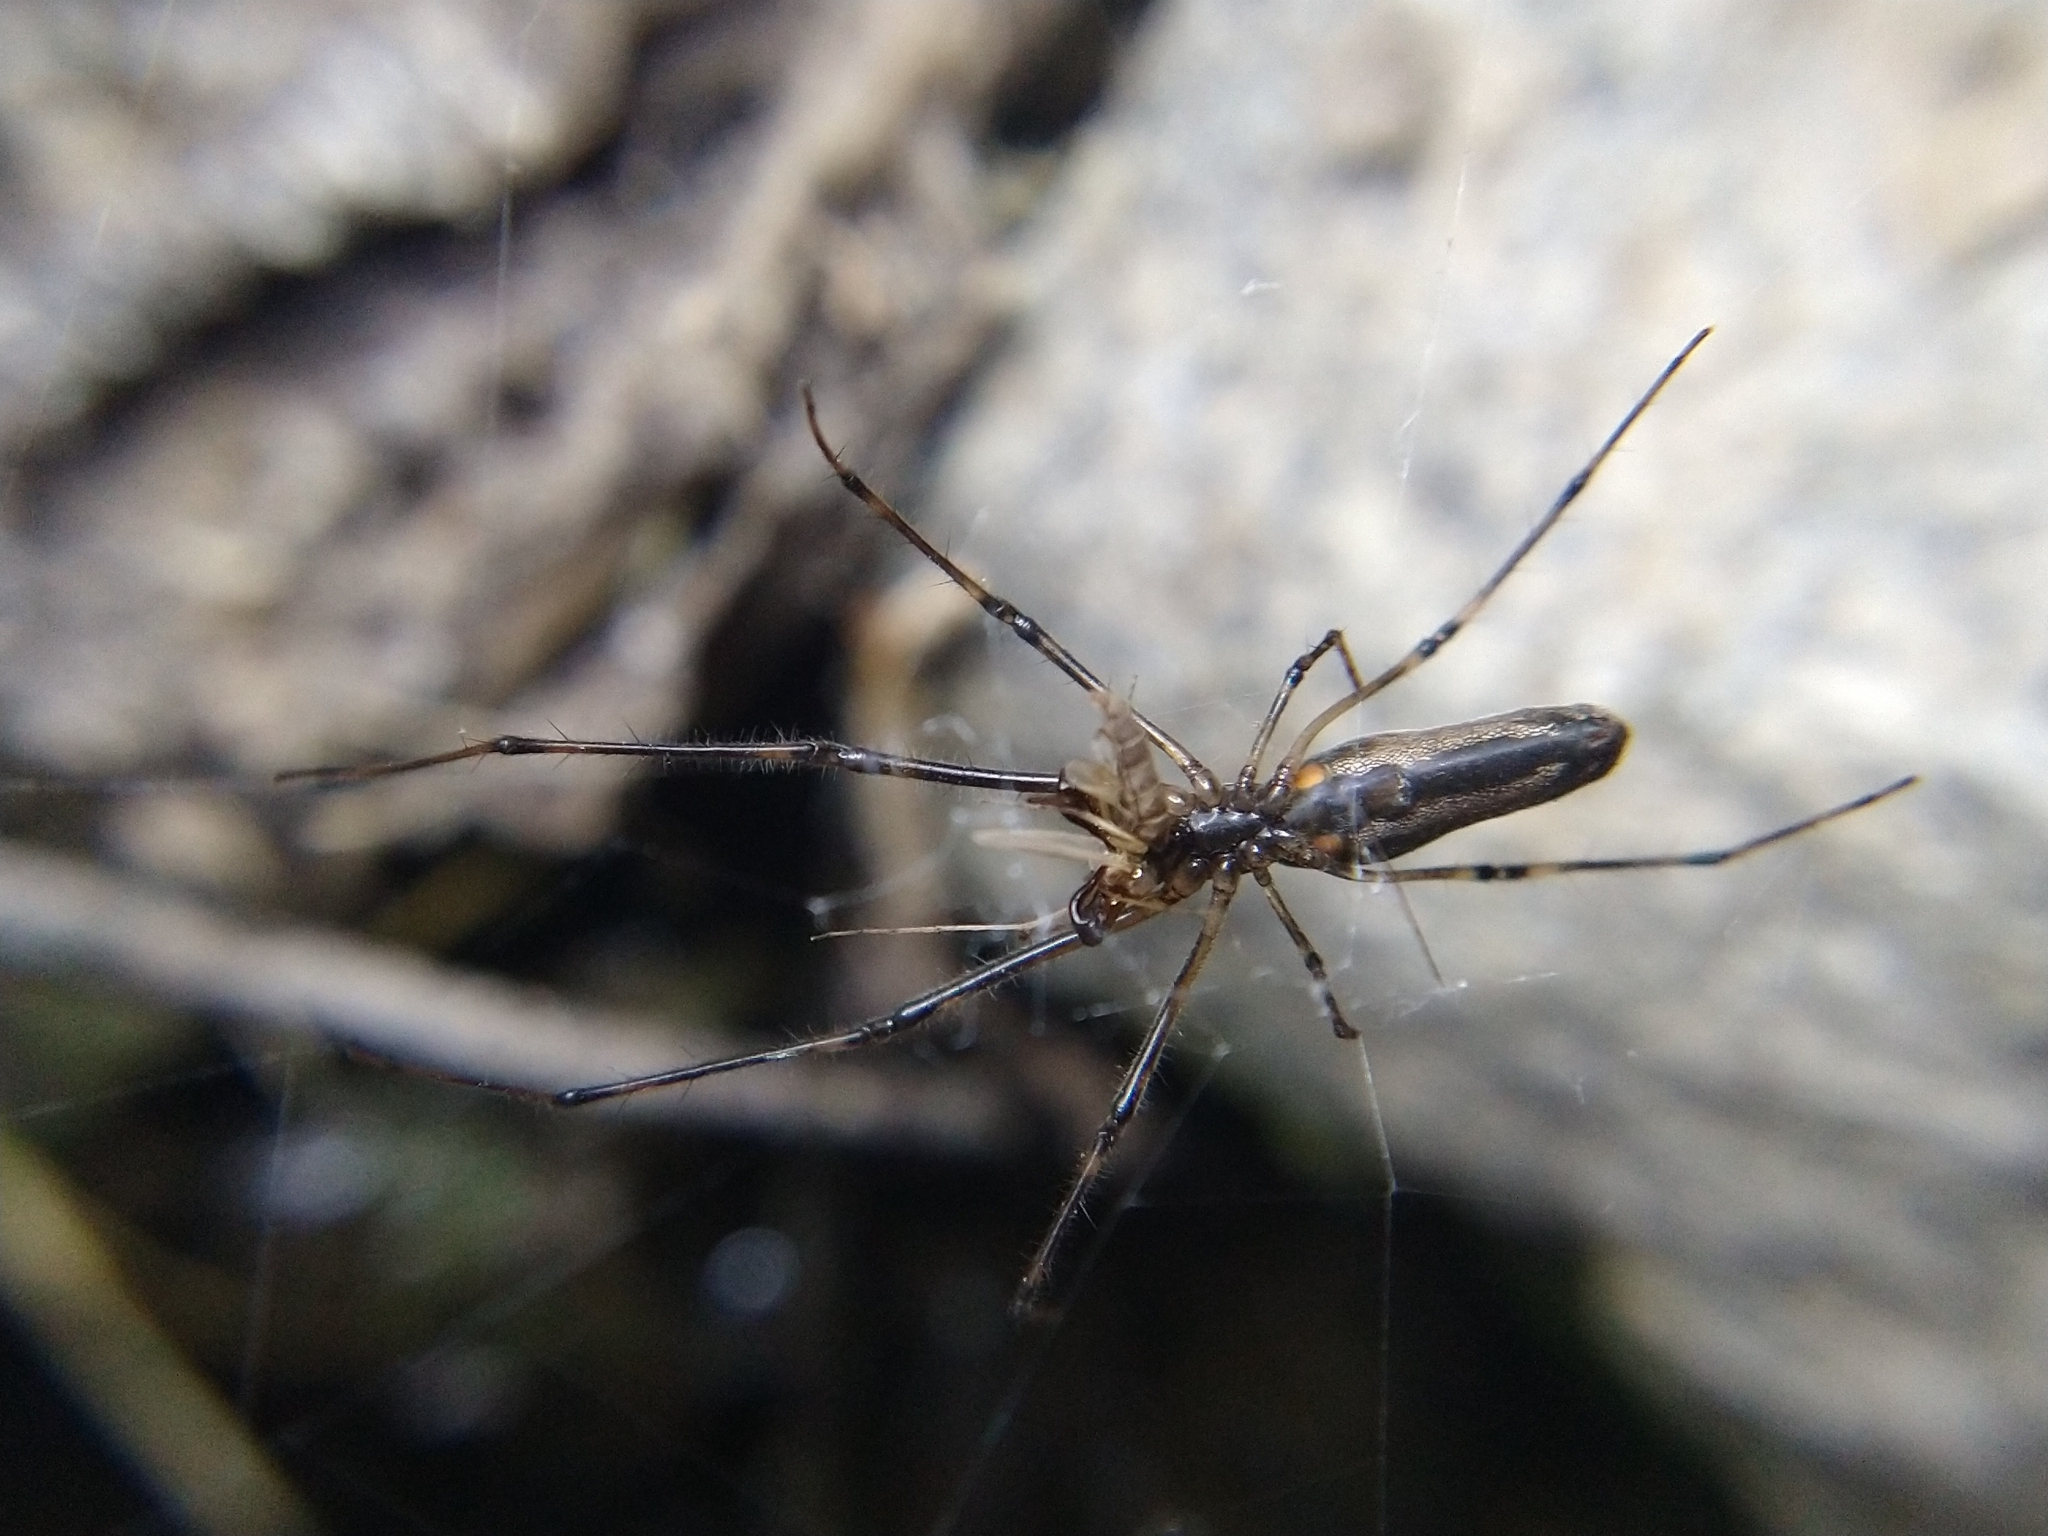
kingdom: Animalia
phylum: Arthropoda
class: Arachnida
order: Araneae
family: Tetragnathidae
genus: Tetragnatha
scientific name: Tetragnatha
